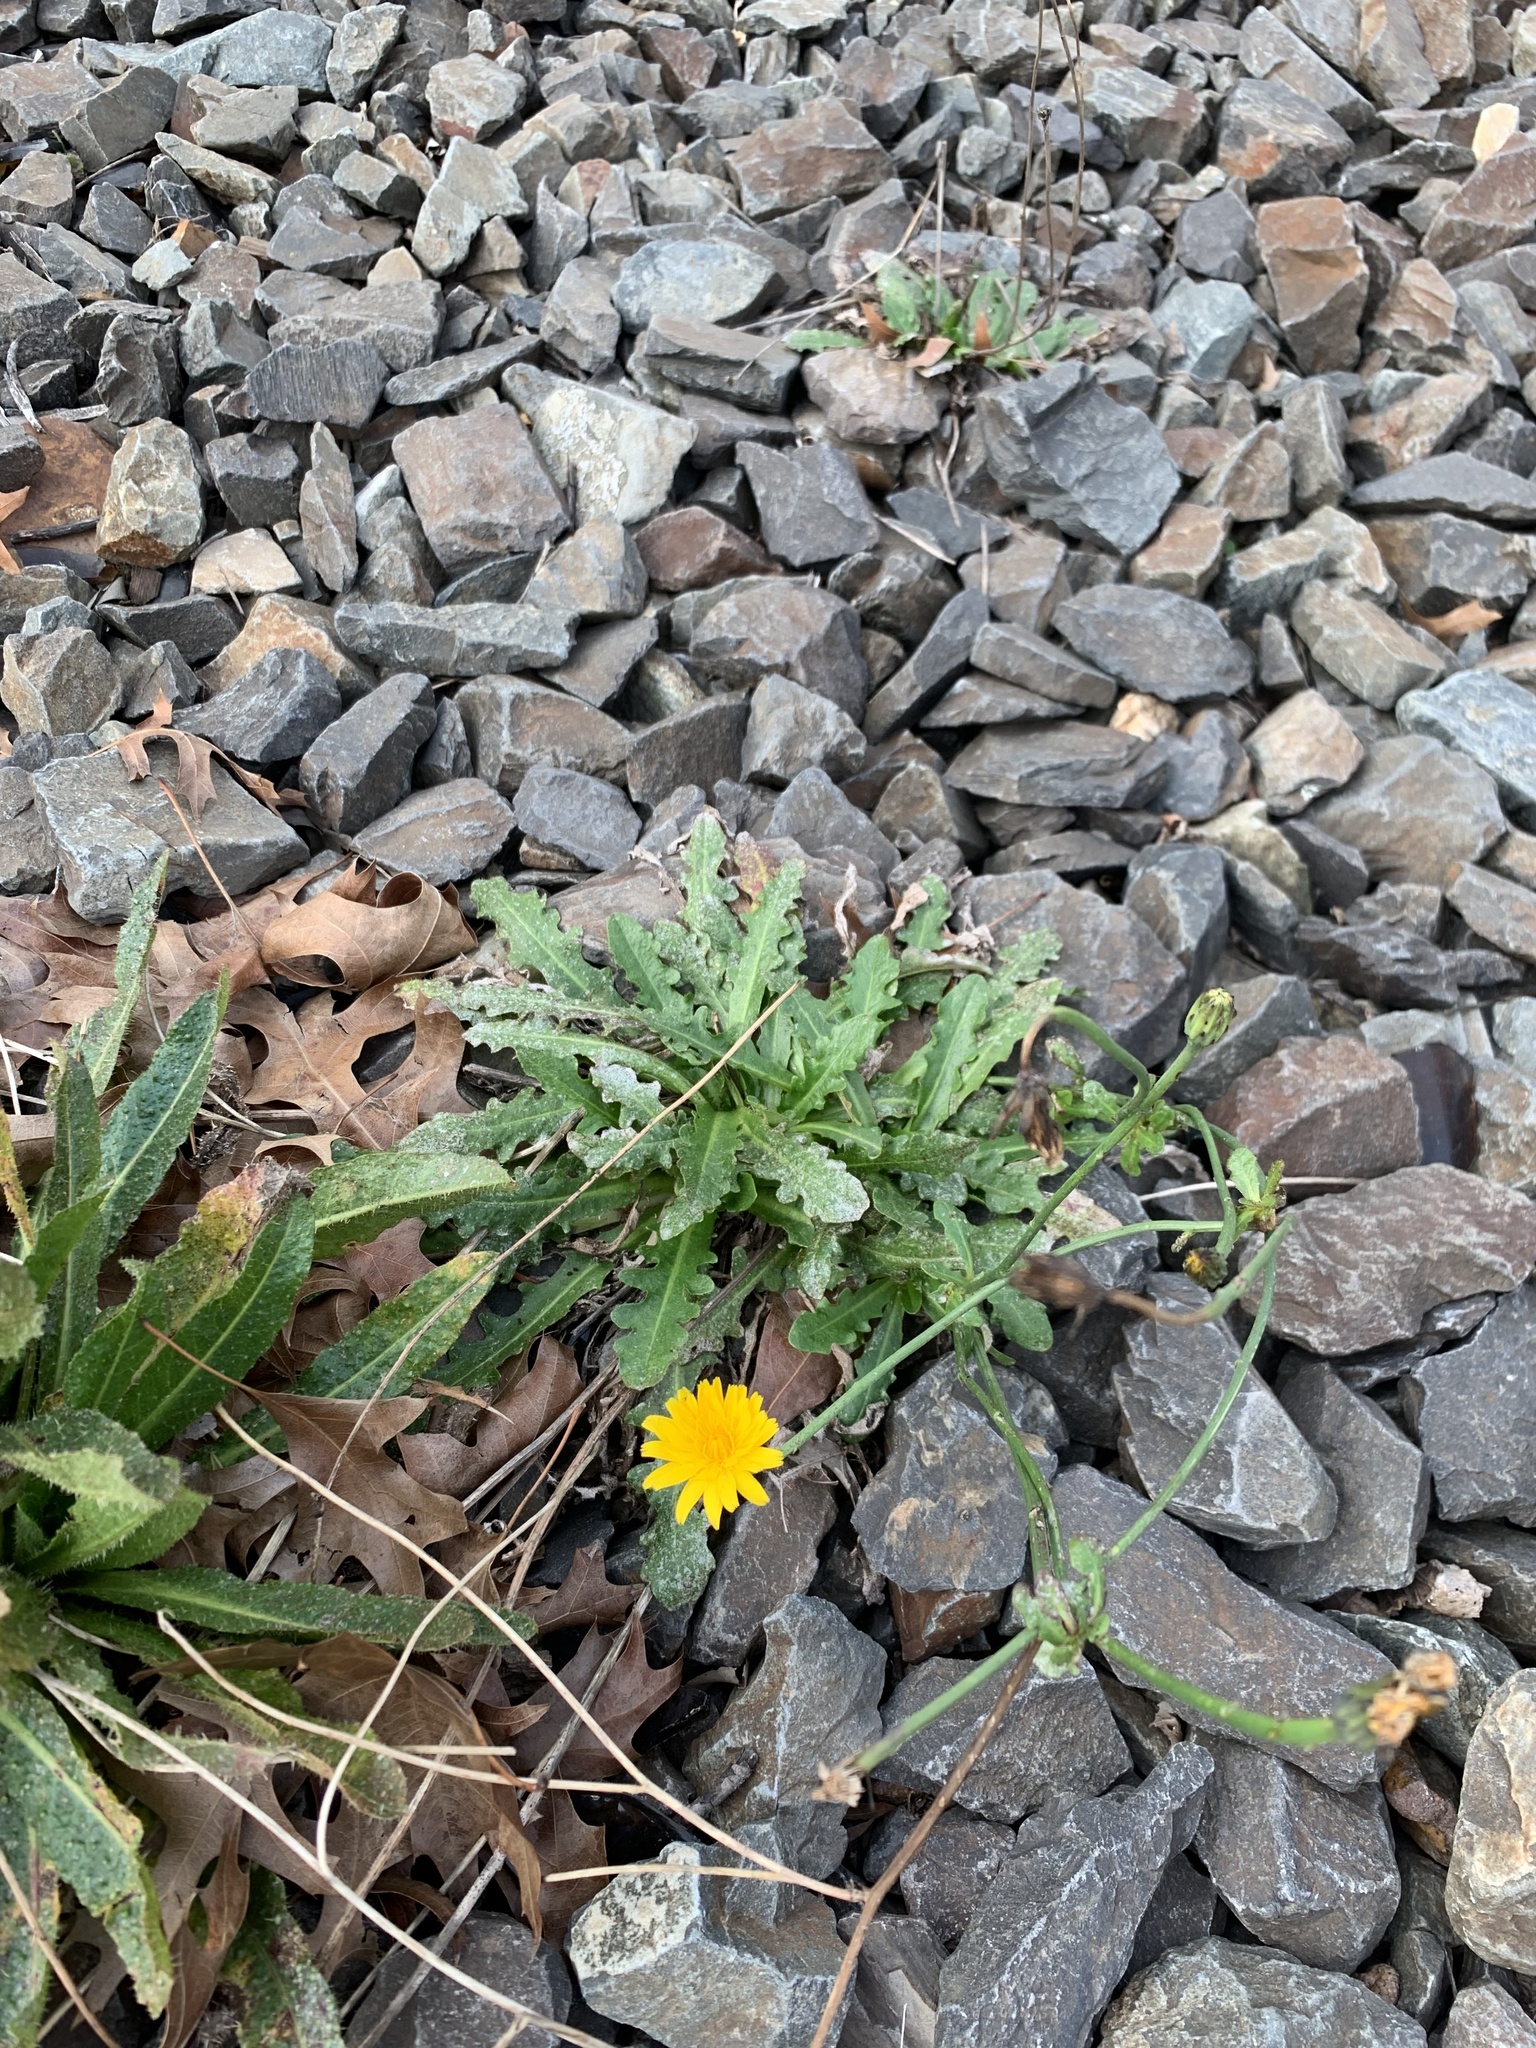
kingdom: Plantae
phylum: Tracheophyta
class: Magnoliopsida
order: Asterales
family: Asteraceae
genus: Hypochaeris
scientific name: Hypochaeris radicata
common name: Flatweed
